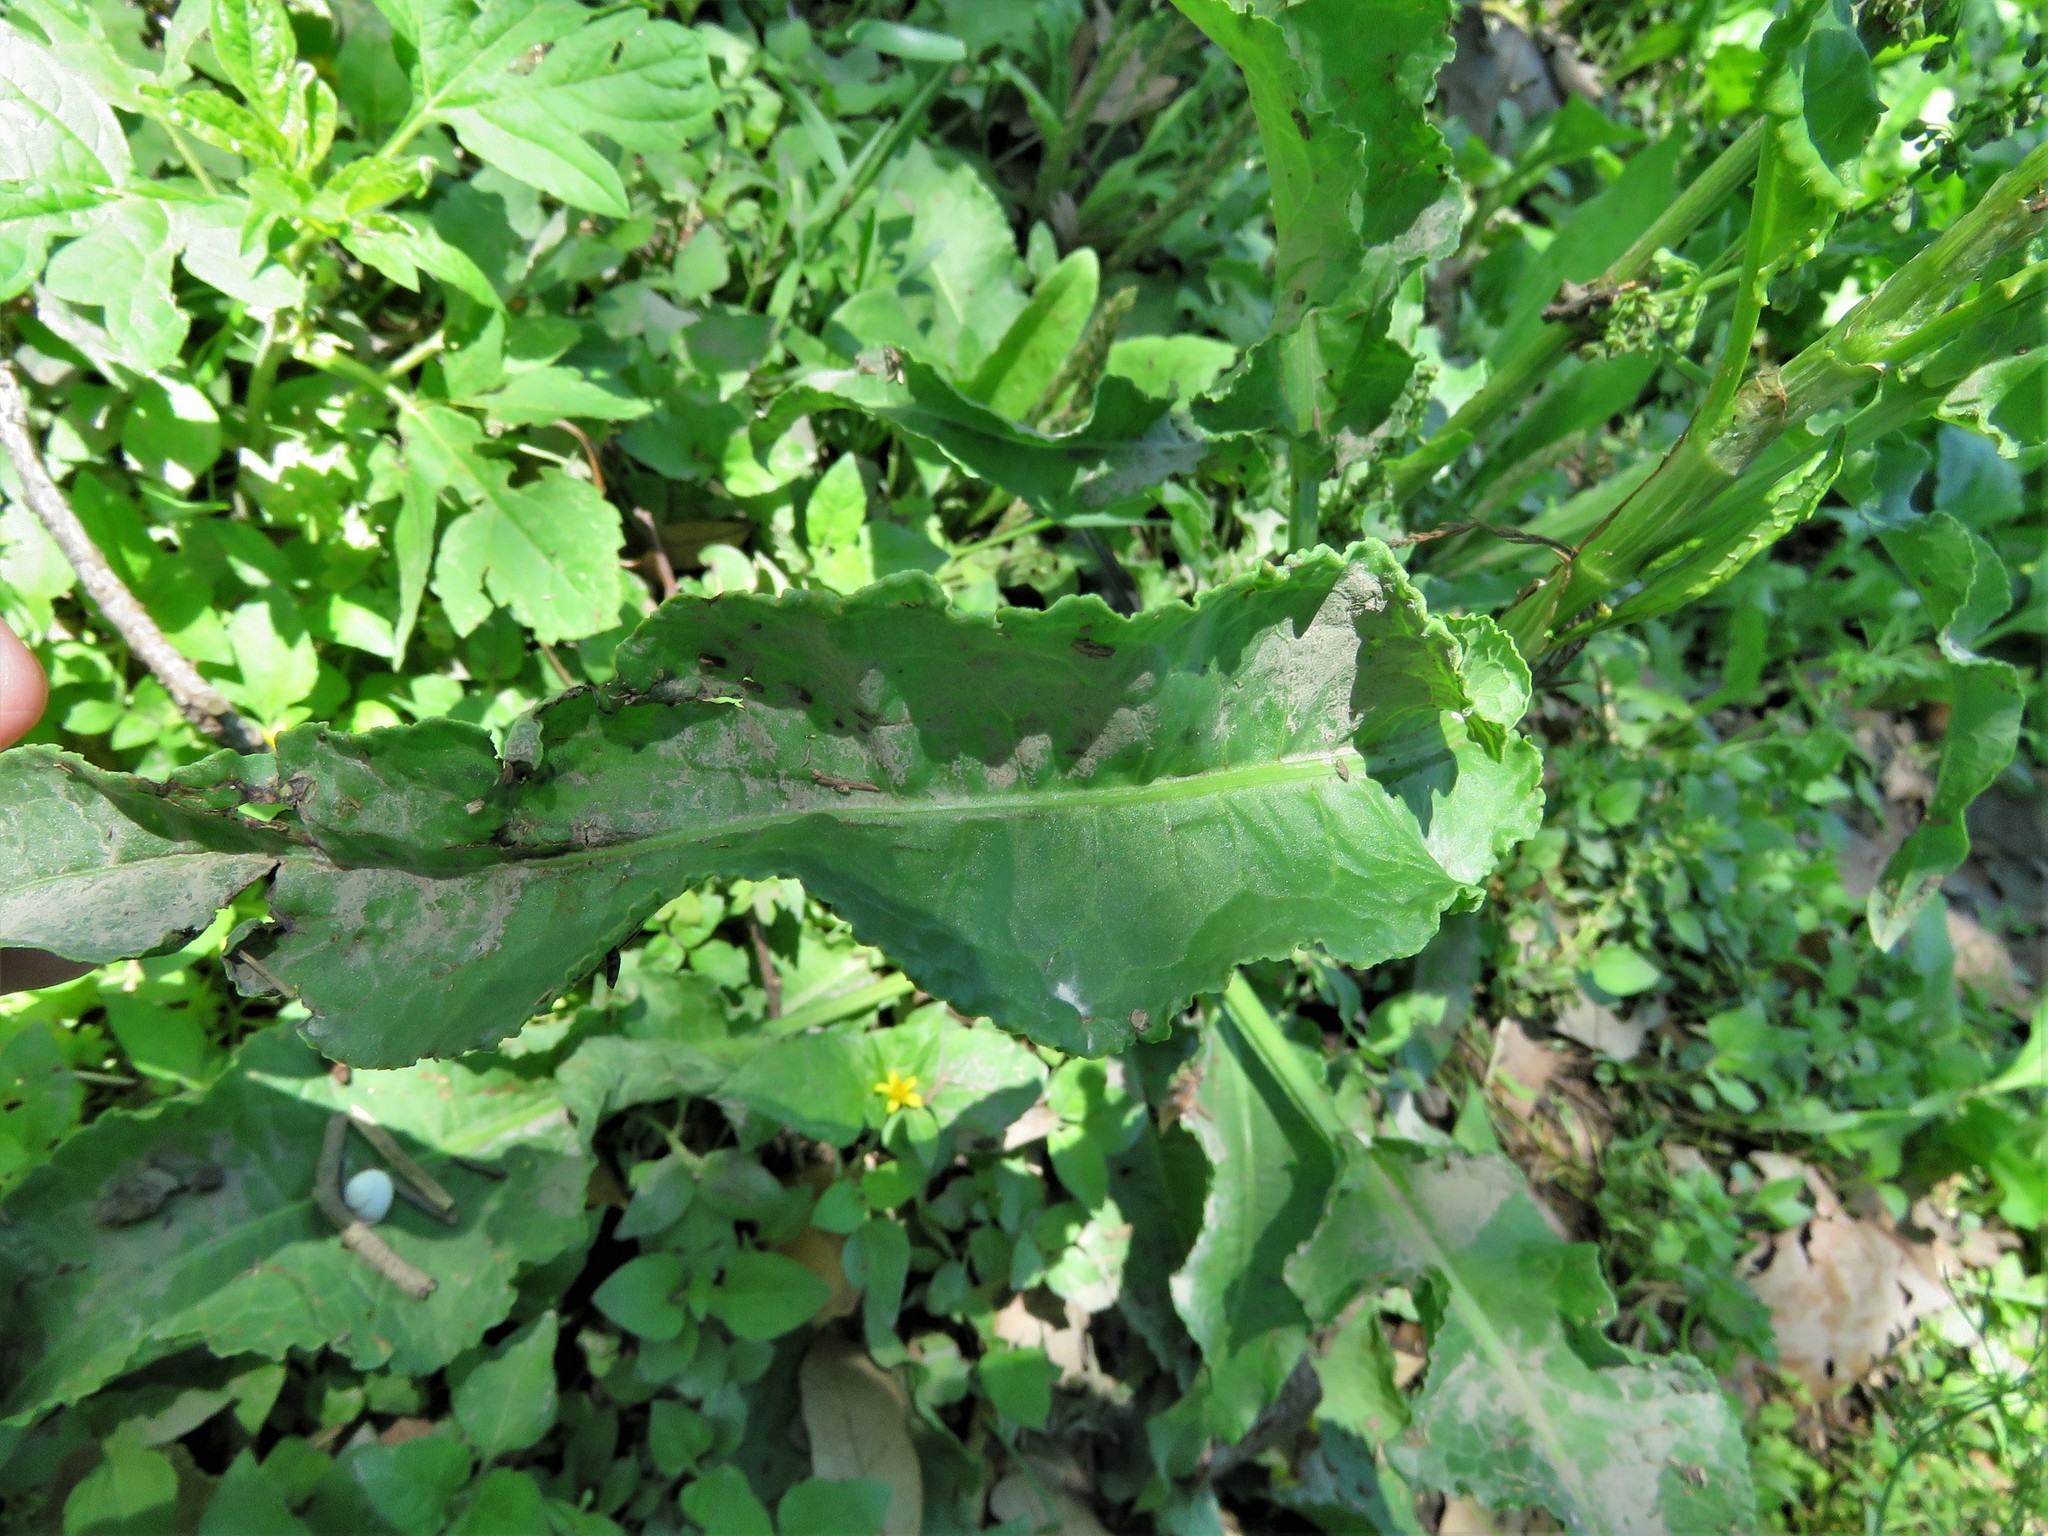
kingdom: Plantae
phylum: Tracheophyta
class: Magnoliopsida
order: Caryophyllales
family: Polygonaceae
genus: Rumex
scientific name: Rumex crispus
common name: Curled dock
